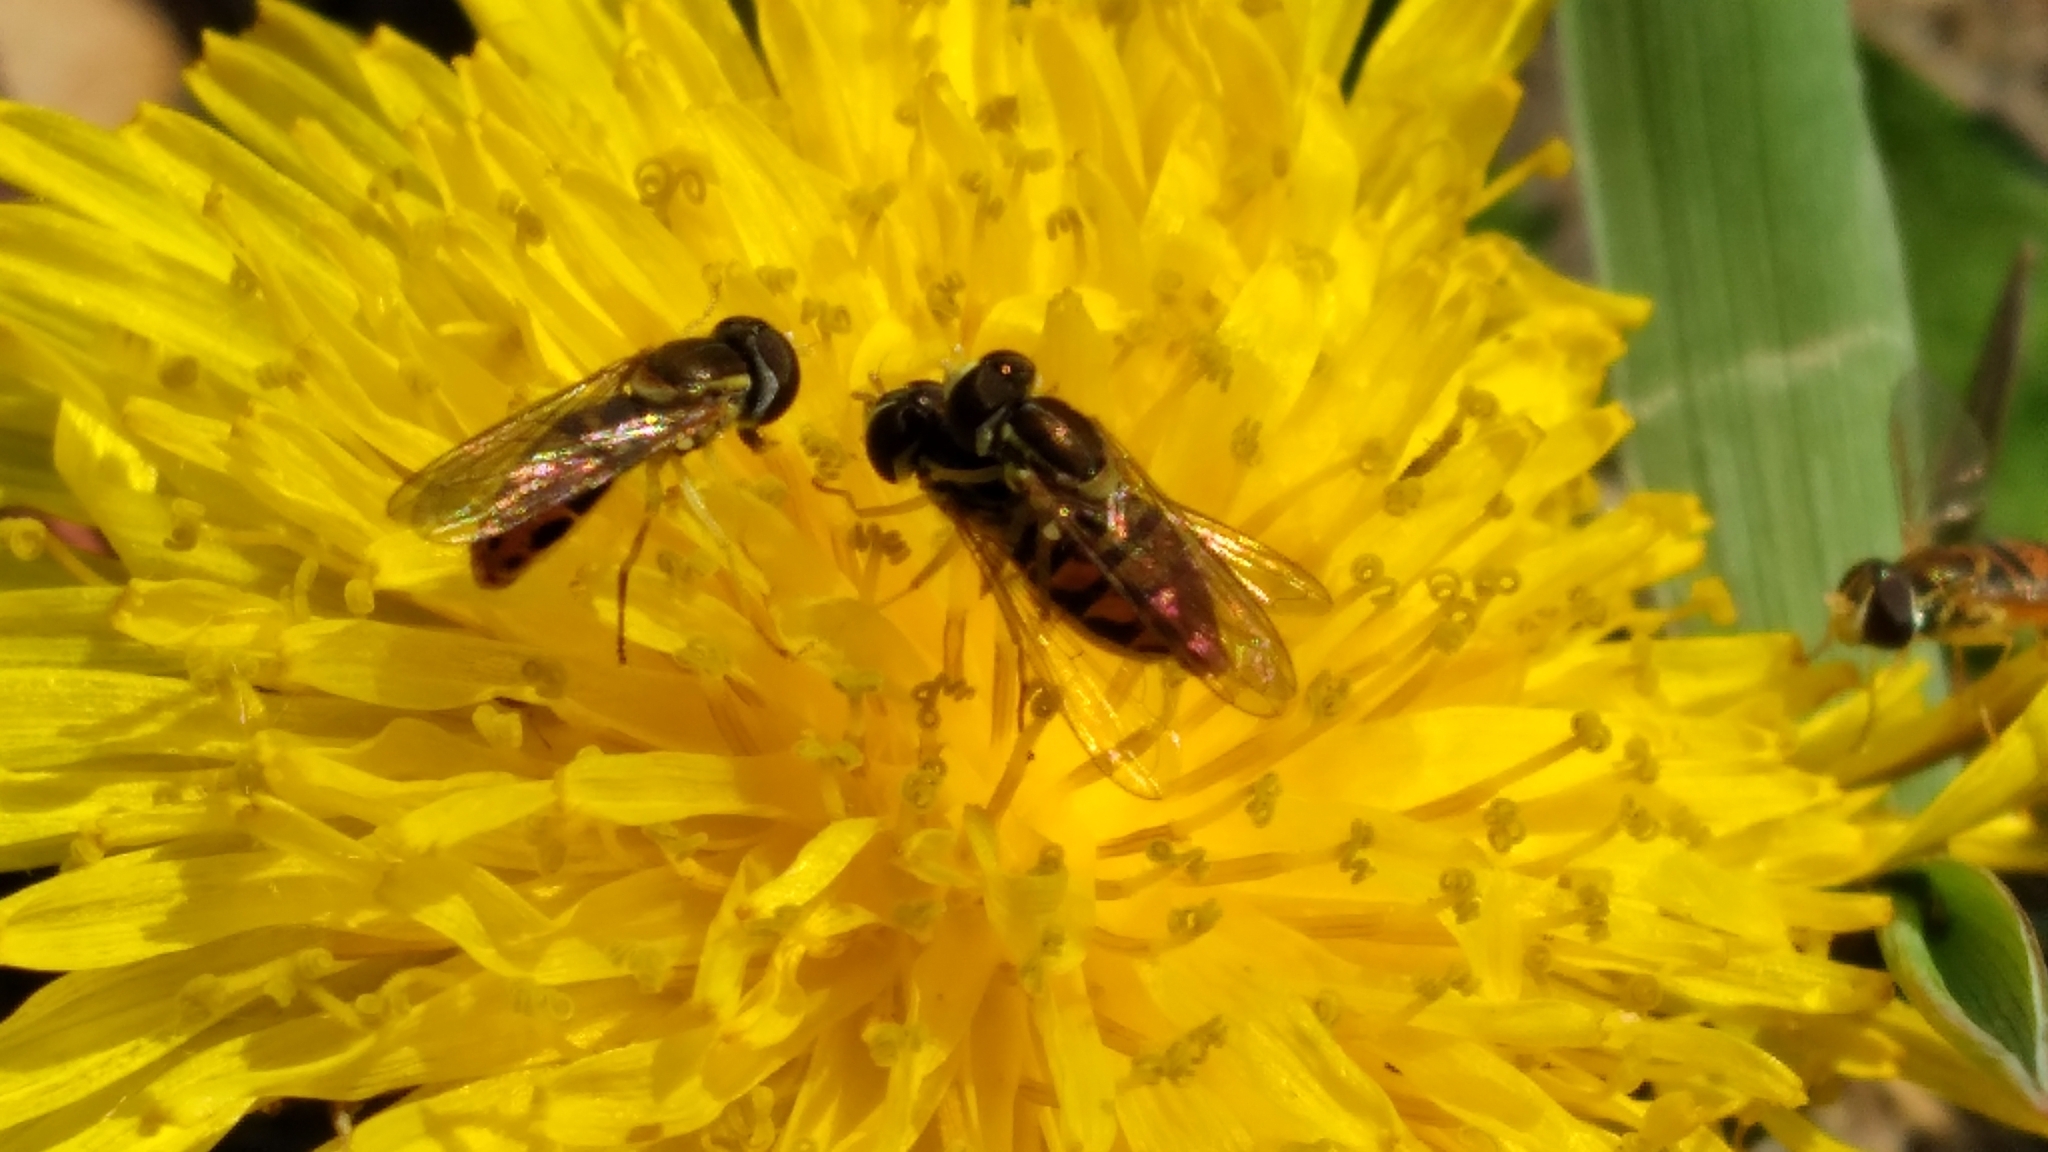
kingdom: Animalia
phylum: Arthropoda
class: Insecta
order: Diptera
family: Syrphidae
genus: Toxomerus
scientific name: Toxomerus marginatus
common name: Syrphid fly
